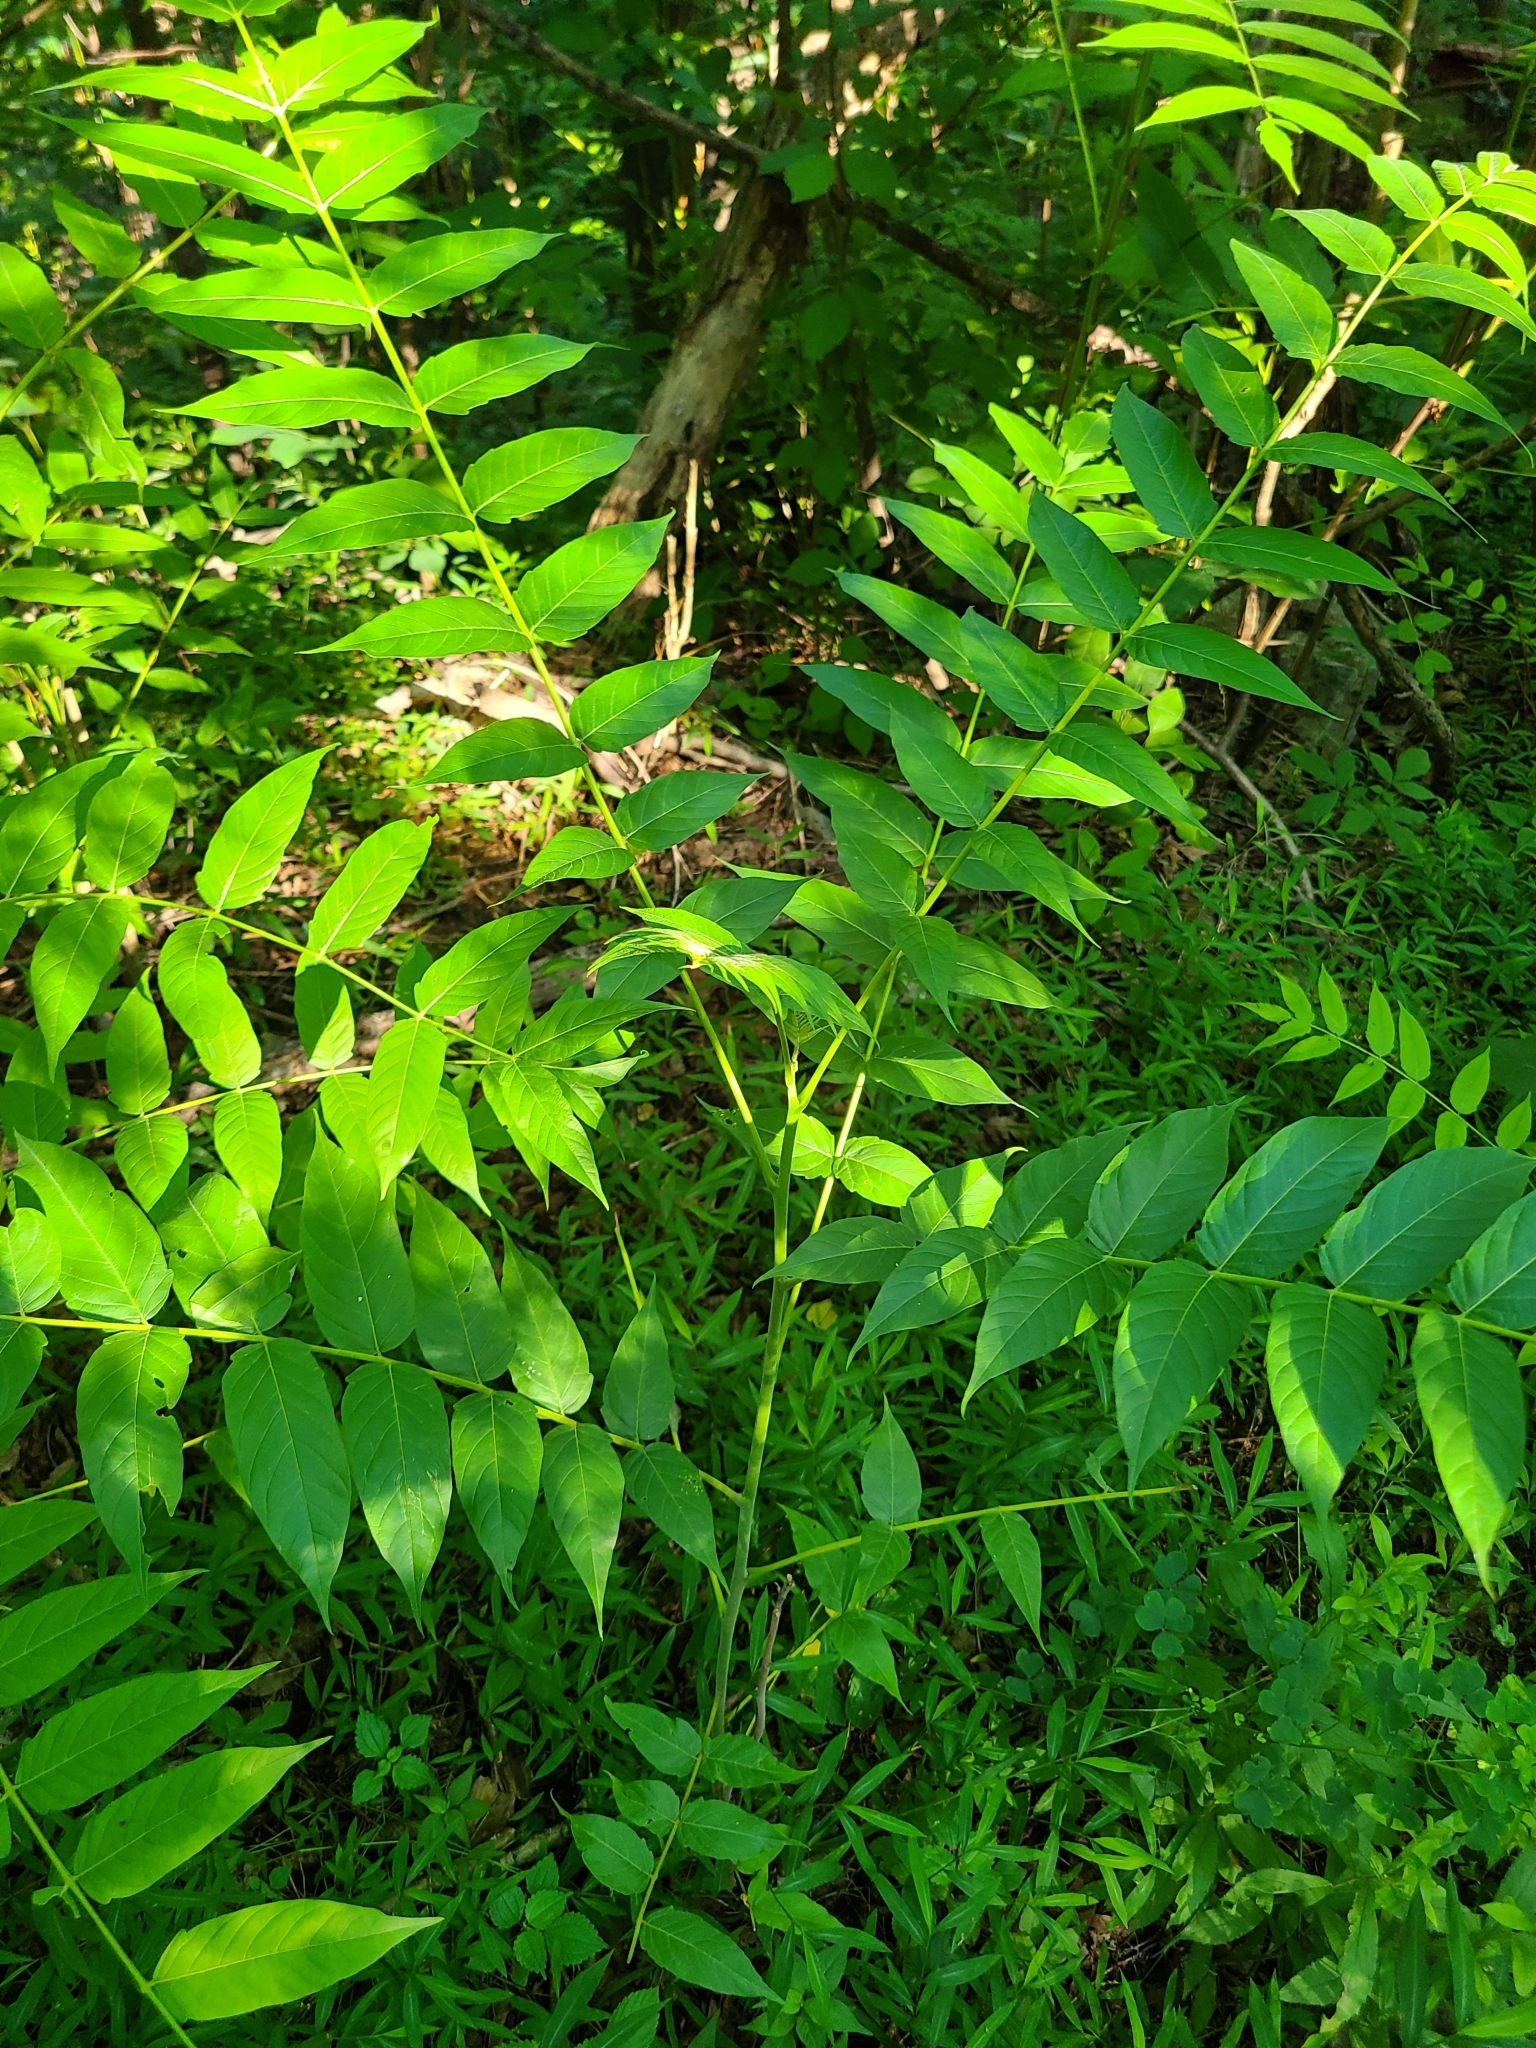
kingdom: Plantae
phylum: Tracheophyta
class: Magnoliopsida
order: Sapindales
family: Simaroubaceae
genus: Ailanthus
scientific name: Ailanthus altissima
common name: Tree-of-heaven
